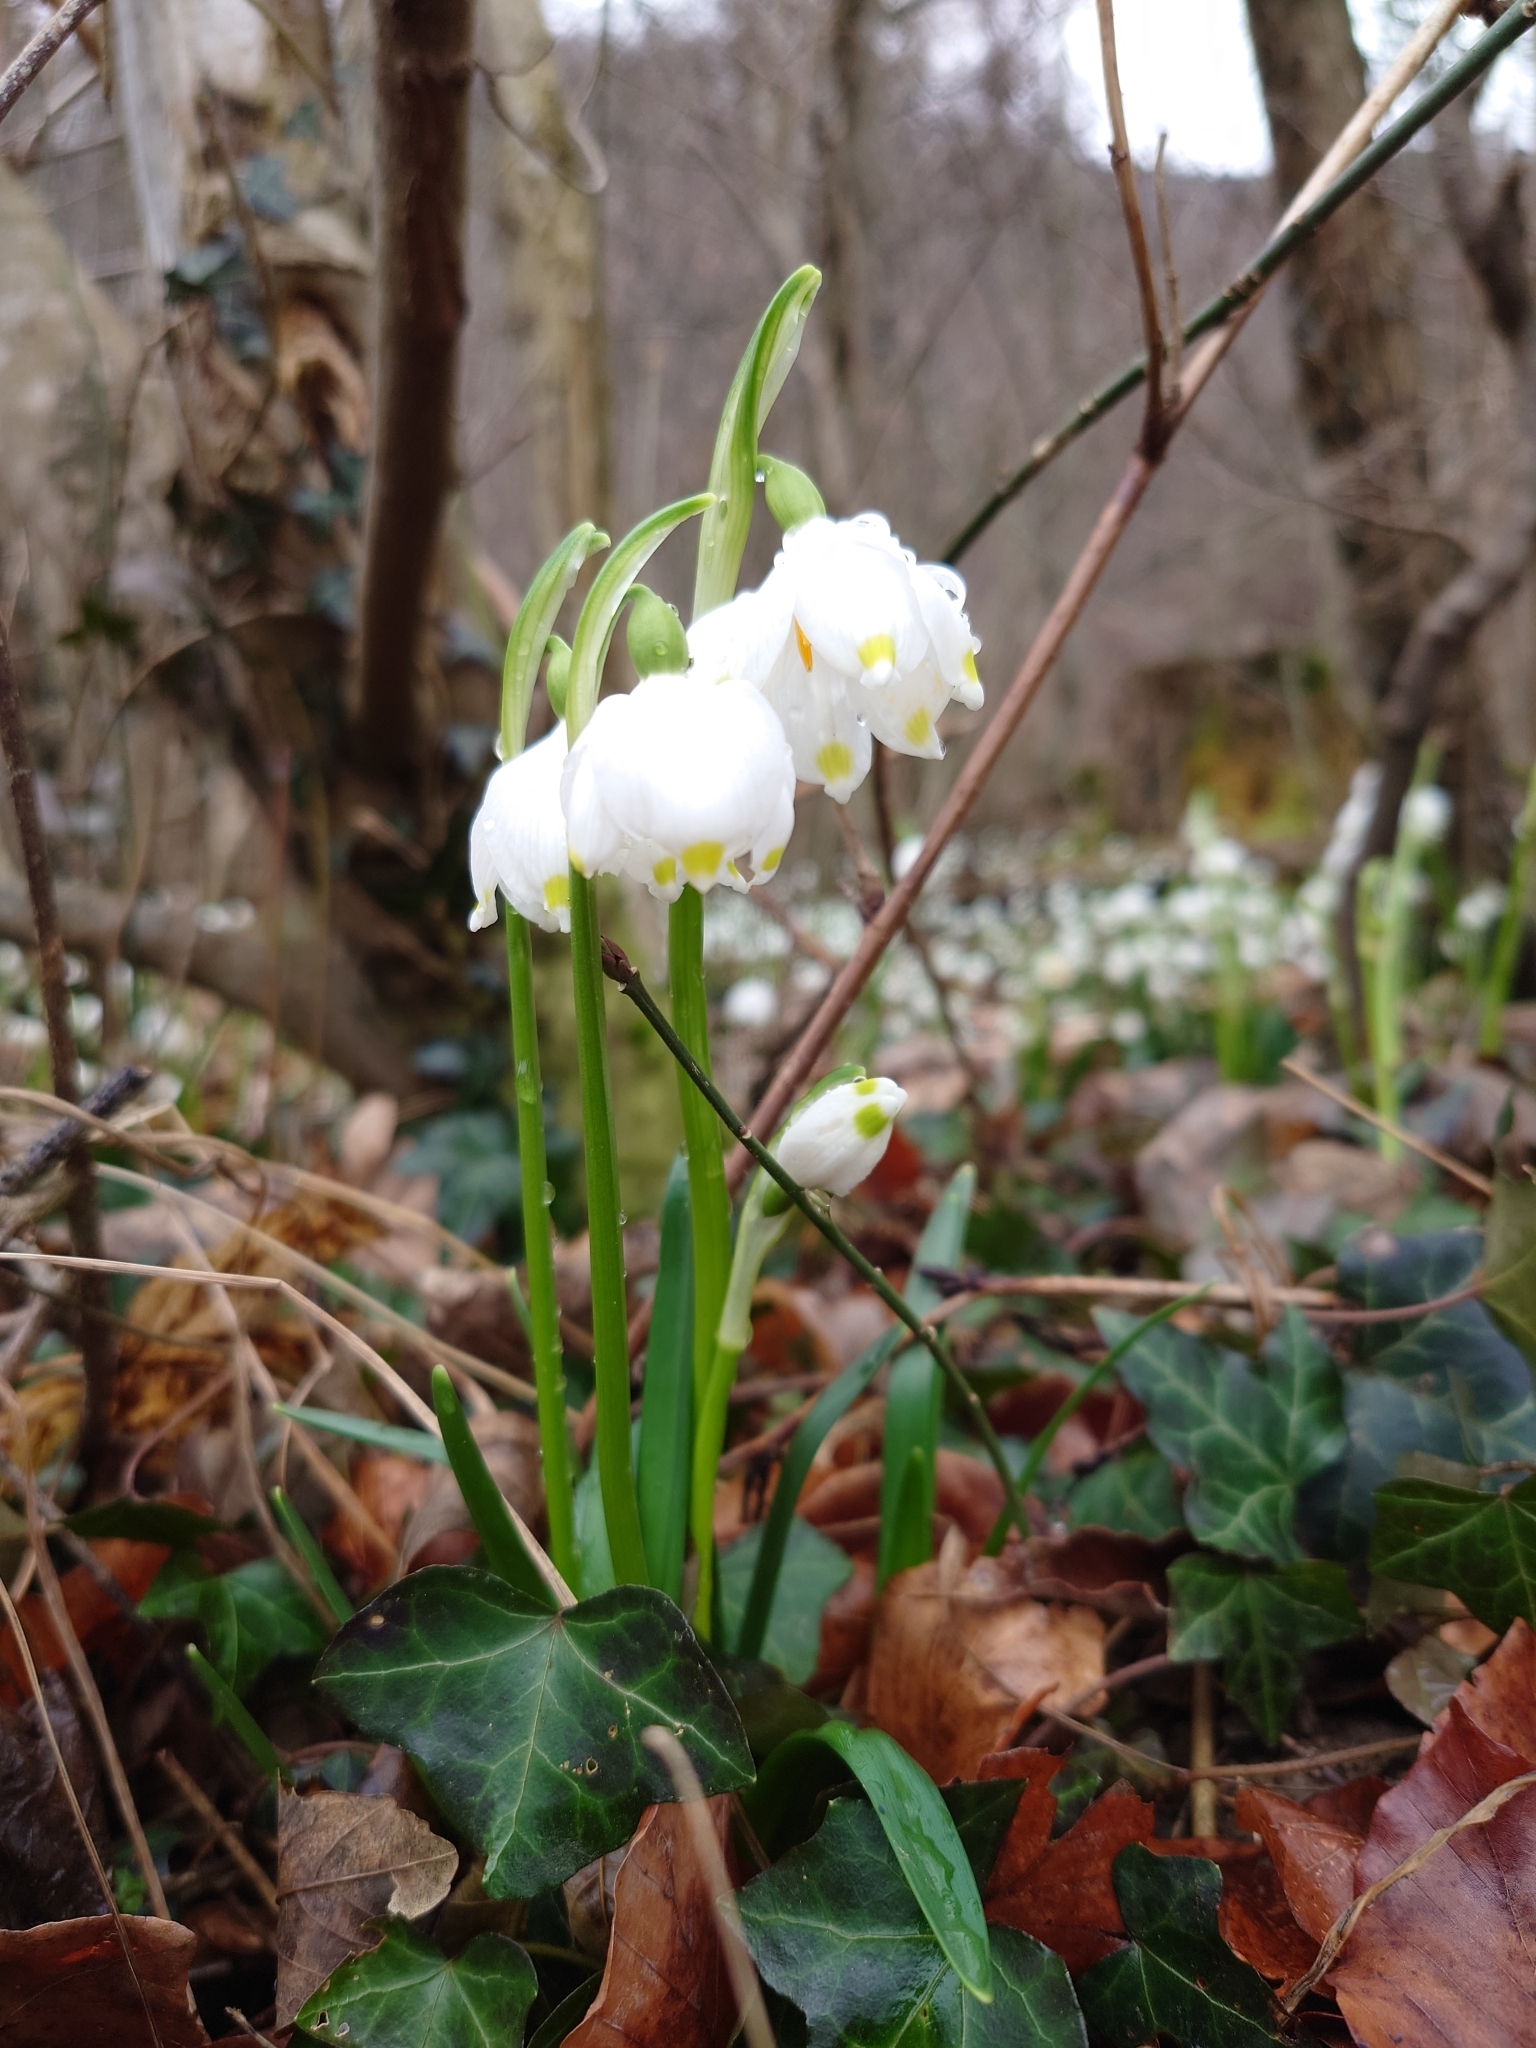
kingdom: Plantae
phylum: Tracheophyta
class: Liliopsida
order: Asparagales
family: Amaryllidaceae
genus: Leucojum
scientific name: Leucojum vernum
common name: Spring snowflake
